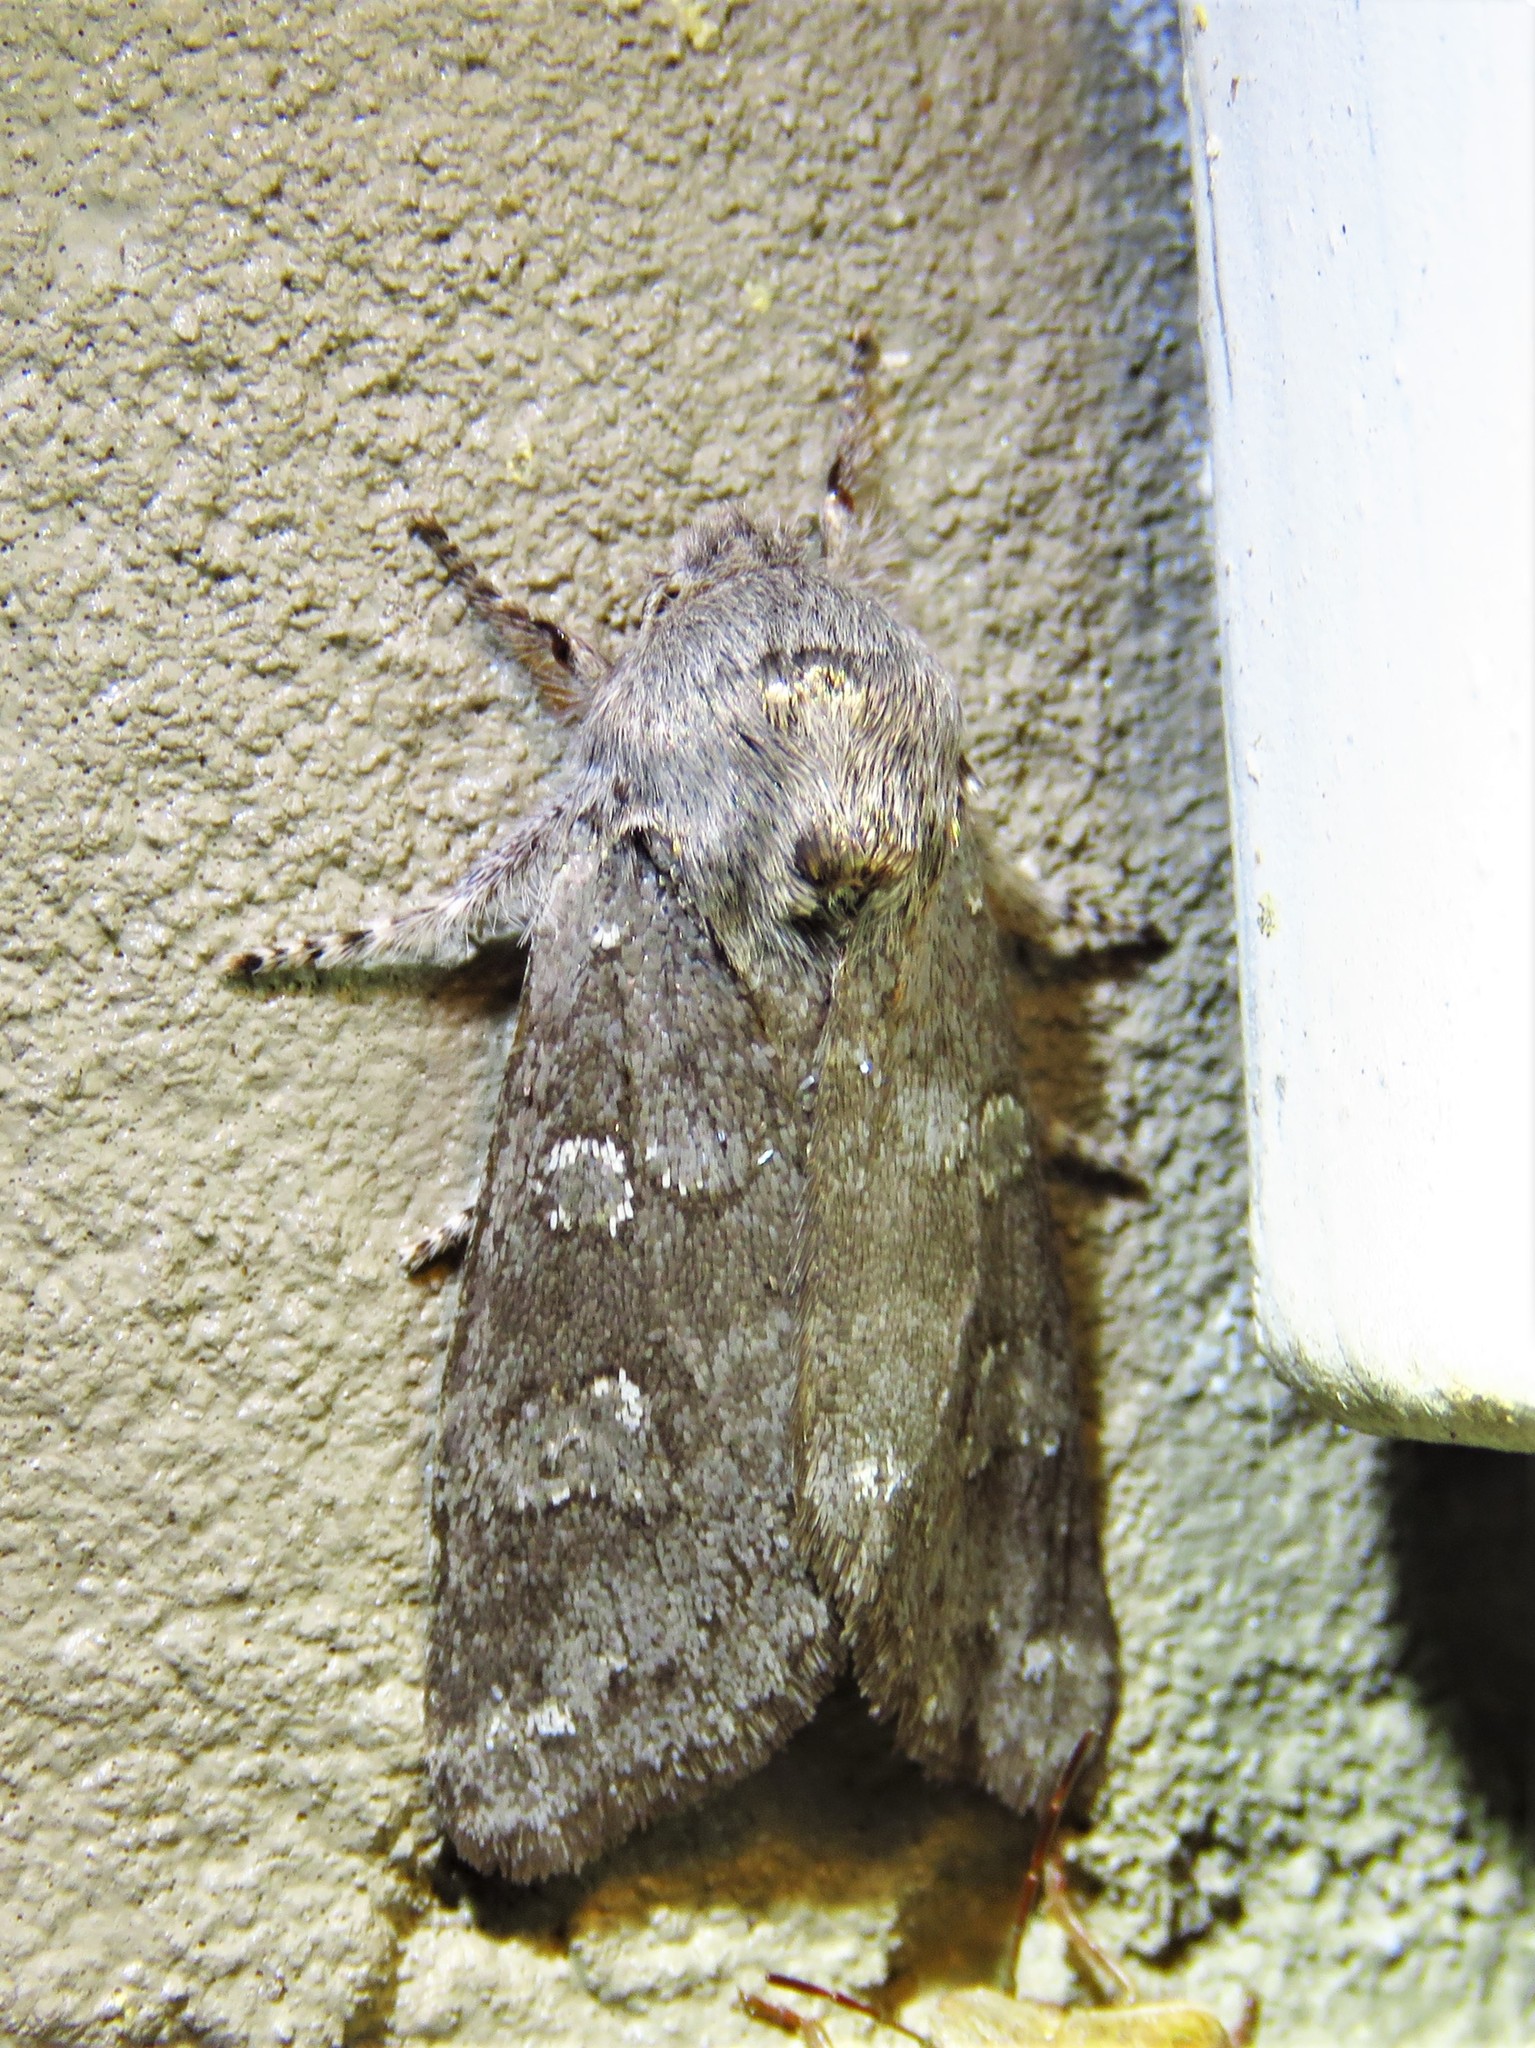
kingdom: Animalia
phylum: Arthropoda
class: Insecta
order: Lepidoptera
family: Noctuidae
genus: Psaphida
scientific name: Psaphida rolandi
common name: Roland's sallow
